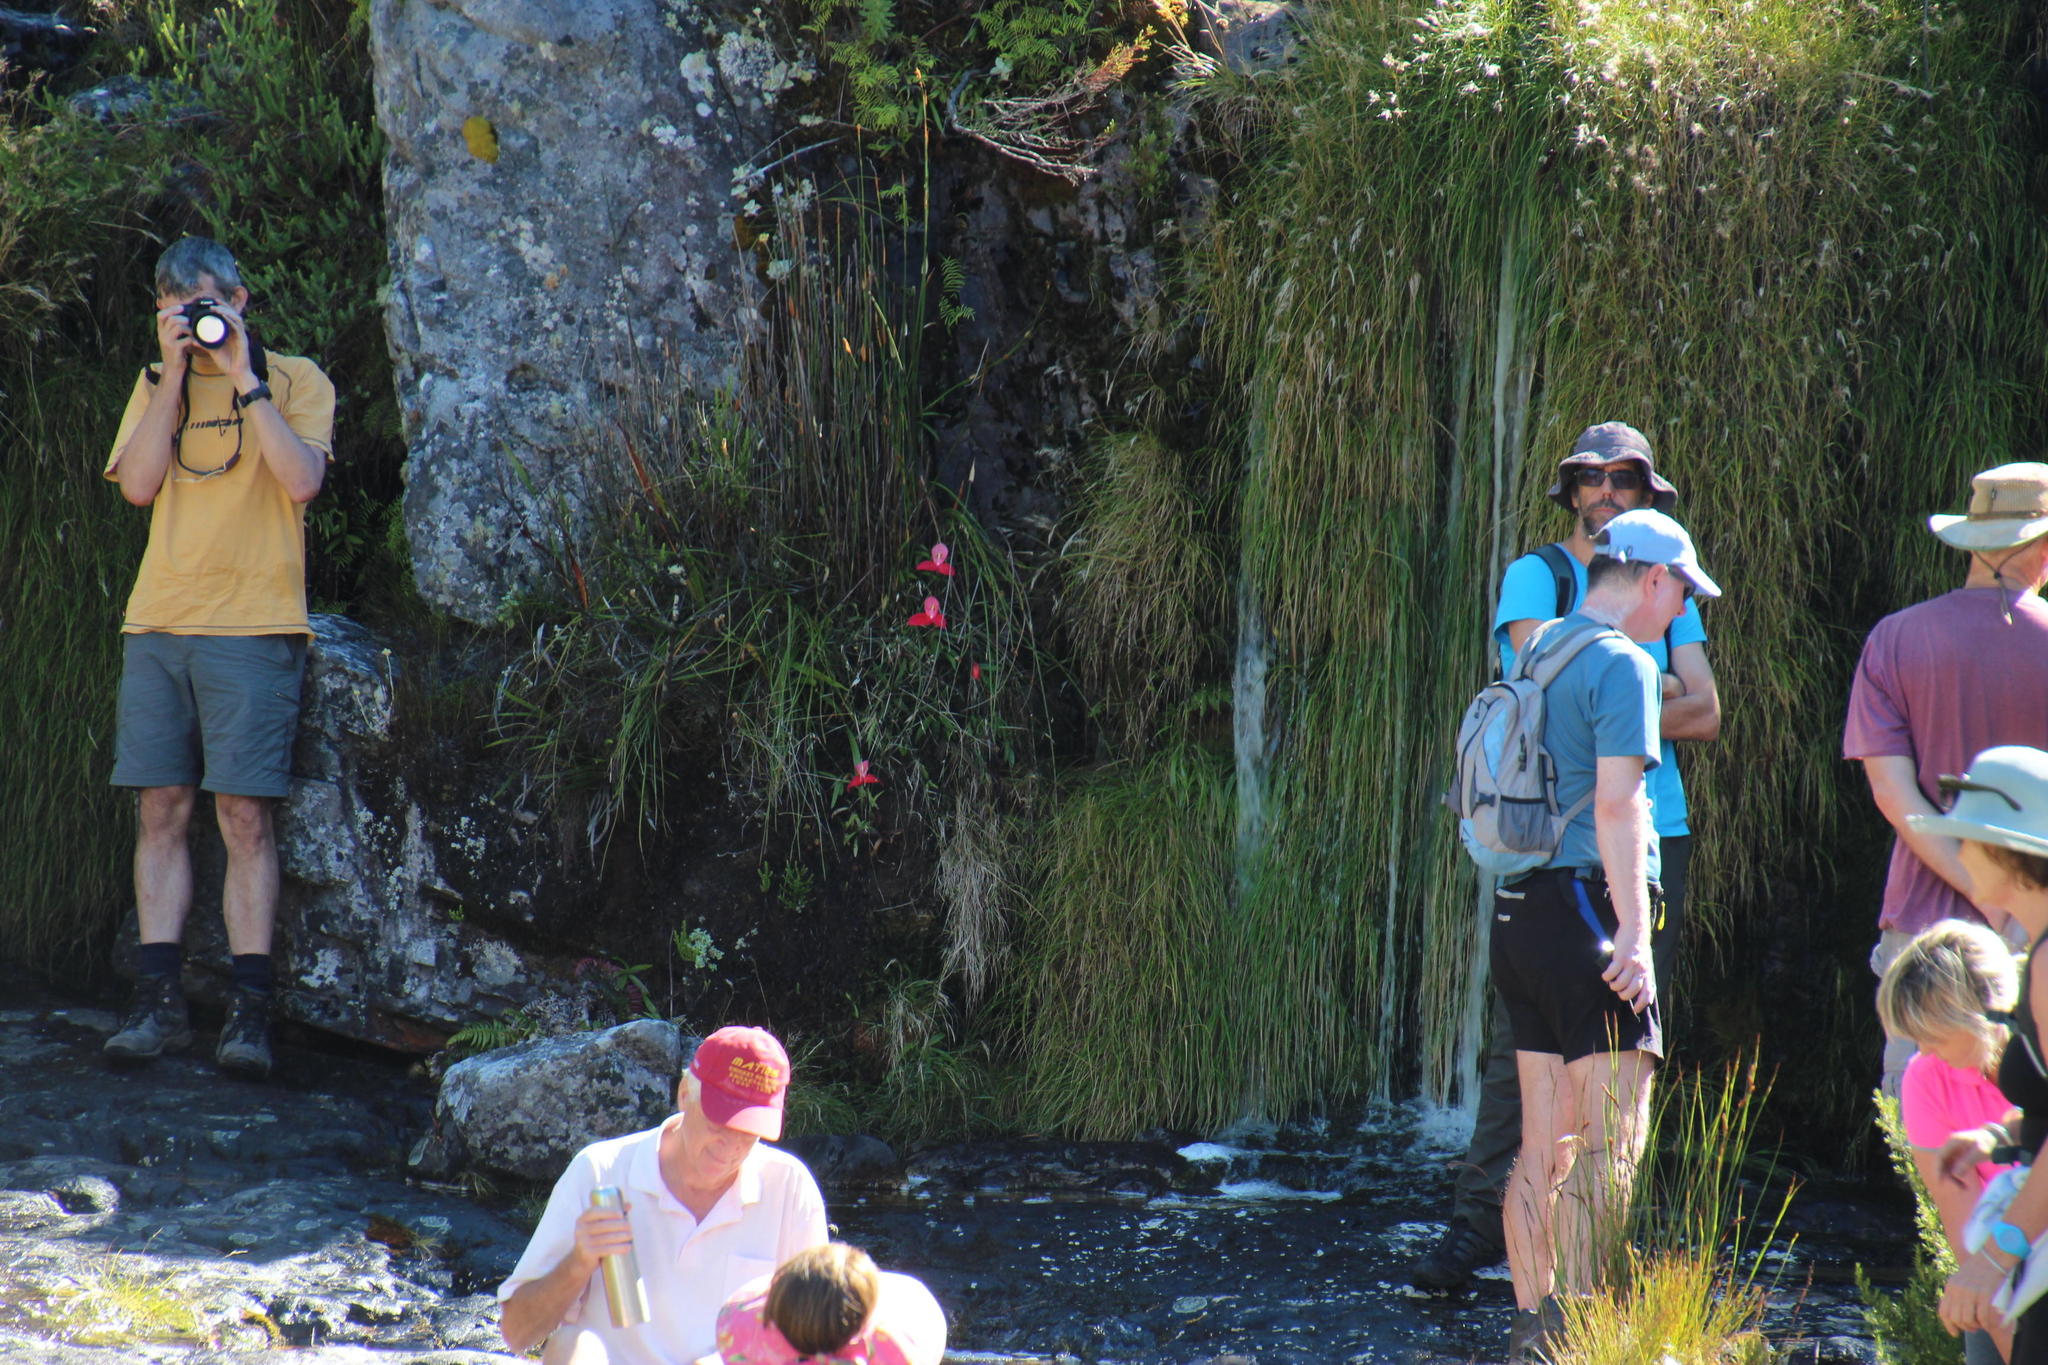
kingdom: Plantae
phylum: Tracheophyta
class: Liliopsida
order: Asparagales
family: Orchidaceae
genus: Disa
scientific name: Disa uniflora
